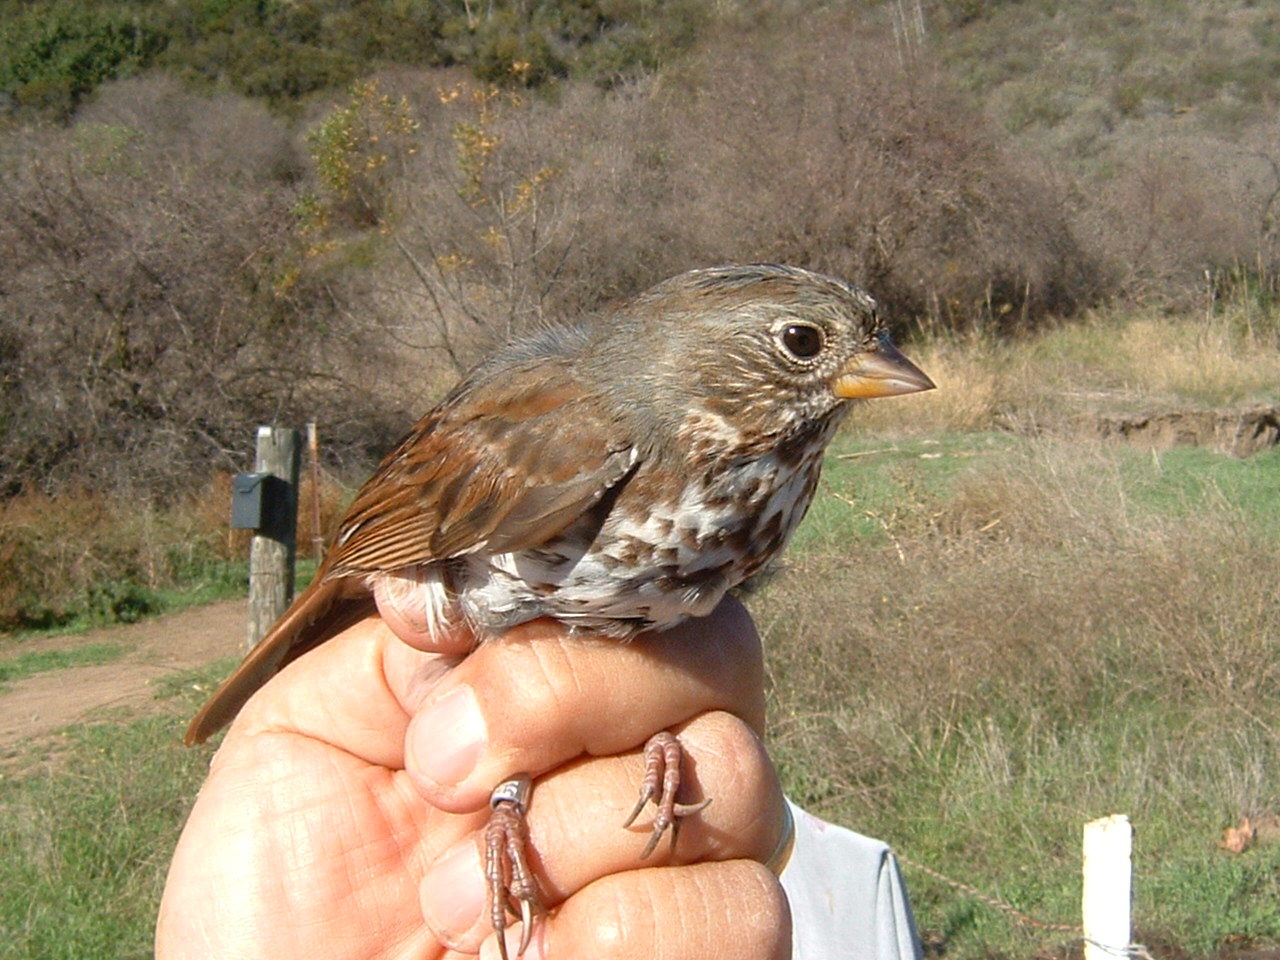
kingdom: Animalia
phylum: Chordata
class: Aves
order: Passeriformes
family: Passerellidae
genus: Passerella
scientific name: Passerella iliaca
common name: Fox sparrow
